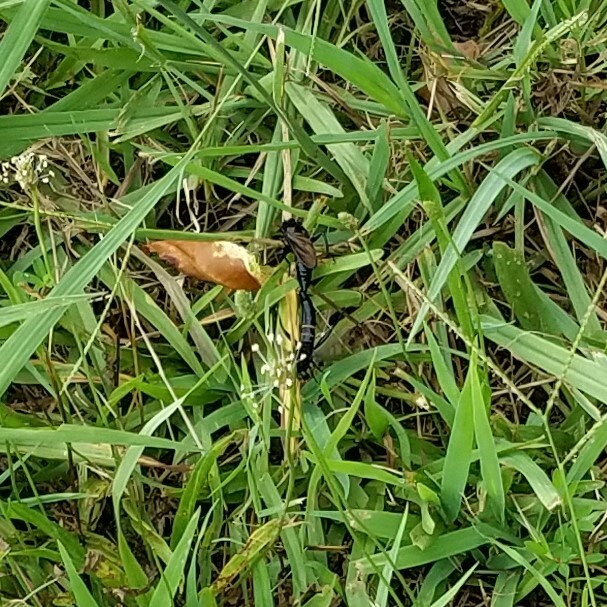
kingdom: Animalia
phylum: Arthropoda
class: Insecta
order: Diptera
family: Mydidae
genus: Mydas
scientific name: Mydas fulvifrons
